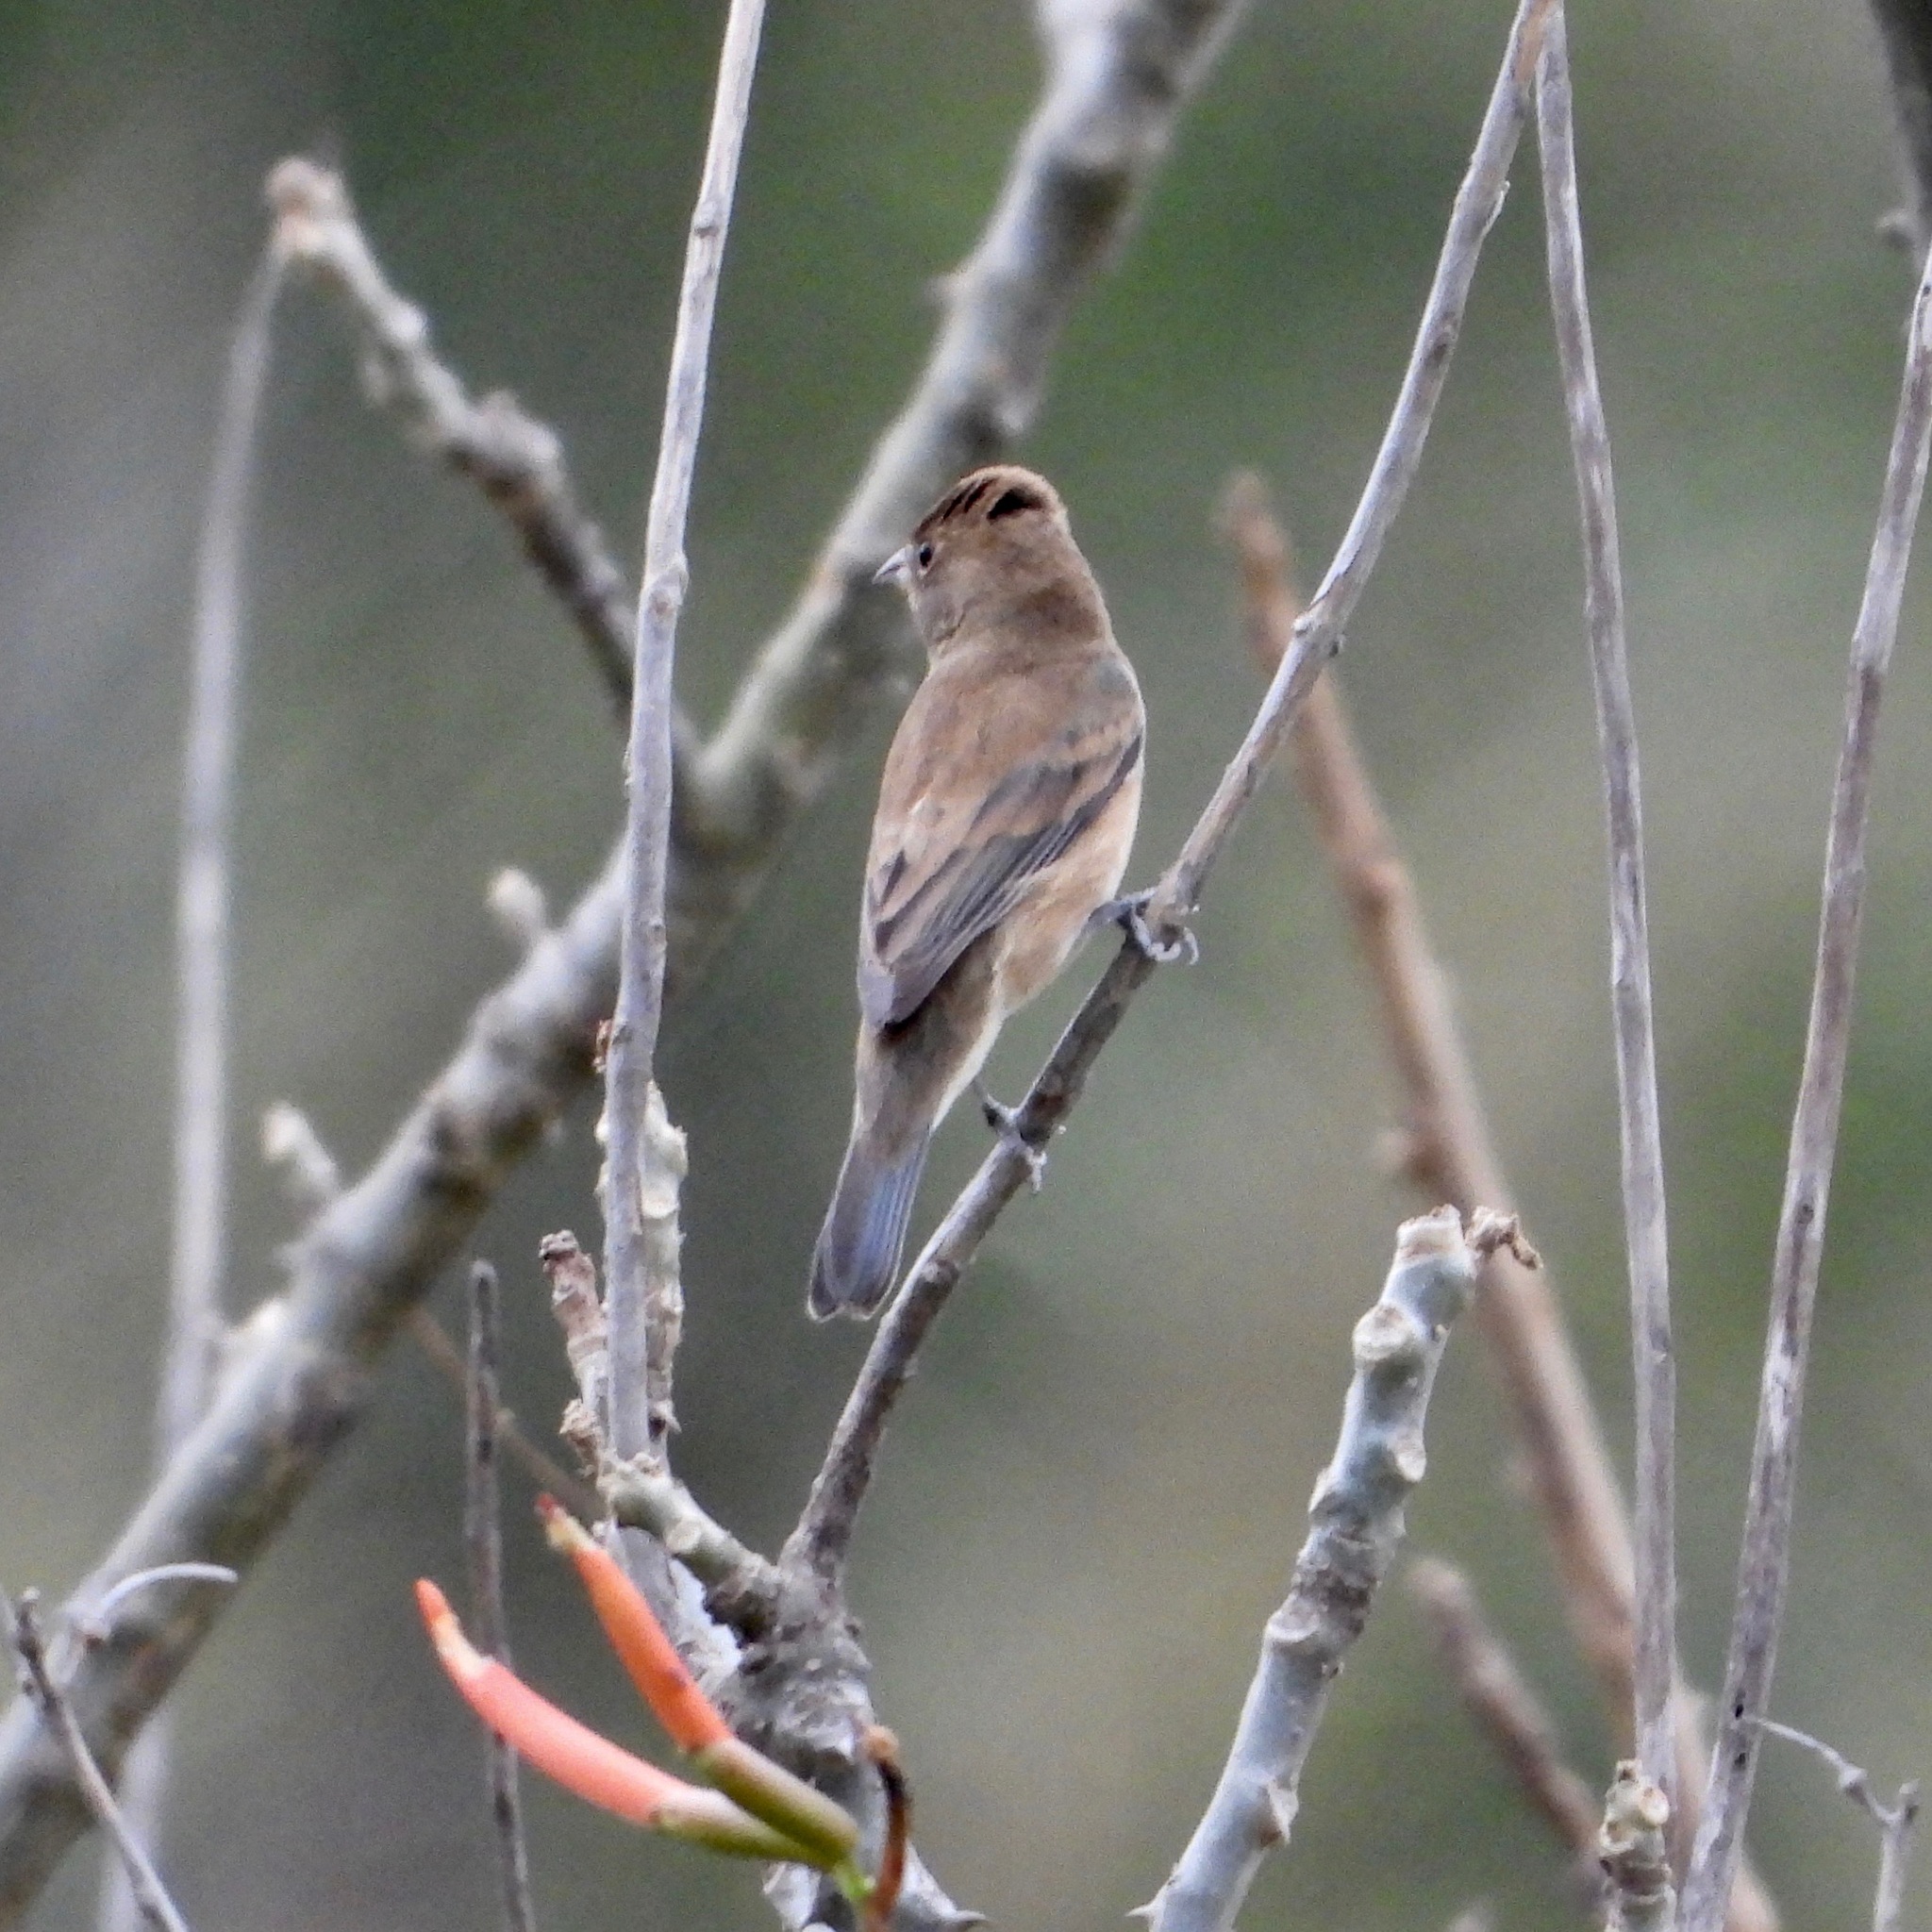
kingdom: Animalia
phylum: Chordata
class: Aves
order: Passeriformes
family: Cardinalidae
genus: Passerina
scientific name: Passerina cyanea
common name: Indigo bunting
